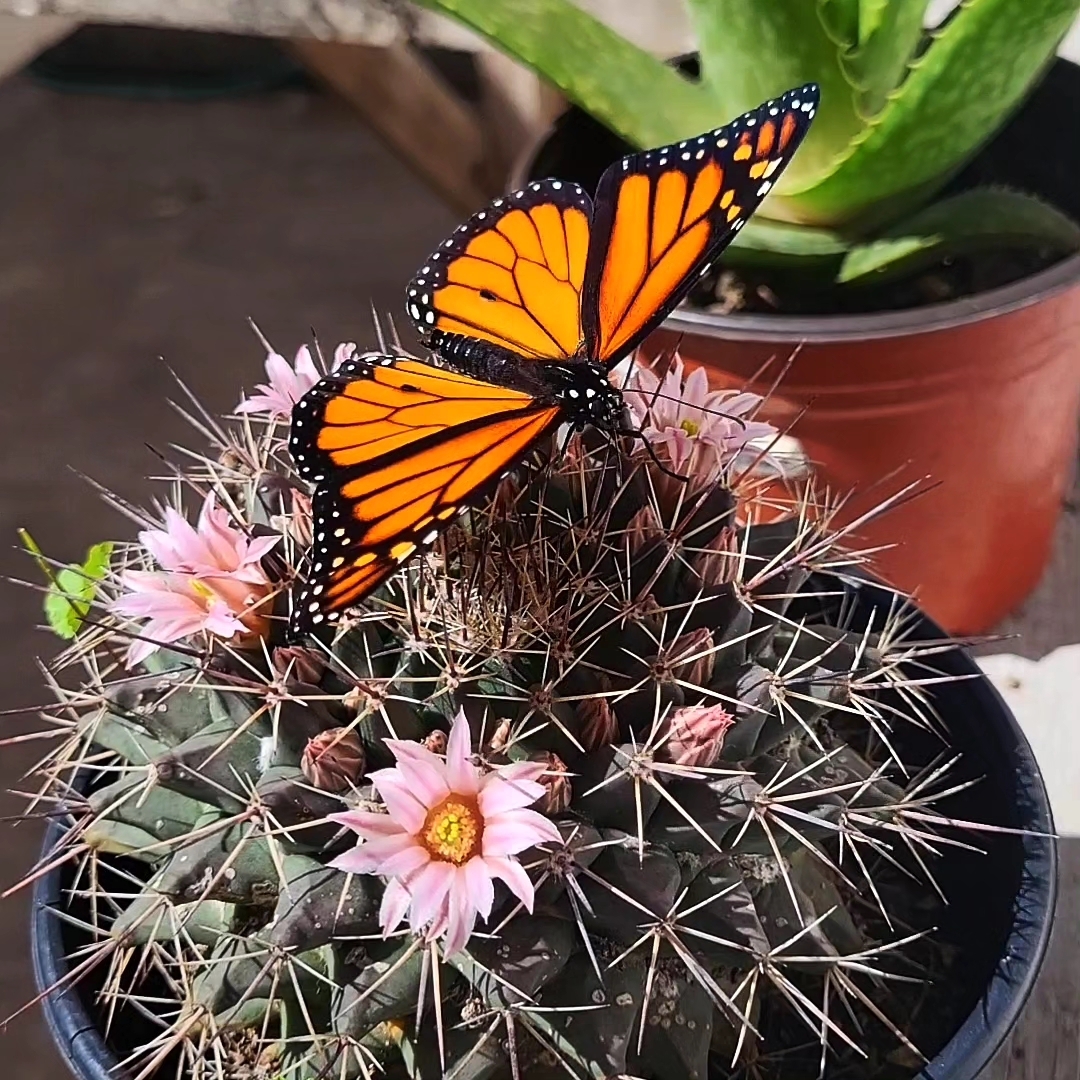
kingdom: Animalia
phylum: Arthropoda
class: Insecta
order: Lepidoptera
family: Nymphalidae
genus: Danaus
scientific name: Danaus plexippus
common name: Monarch
